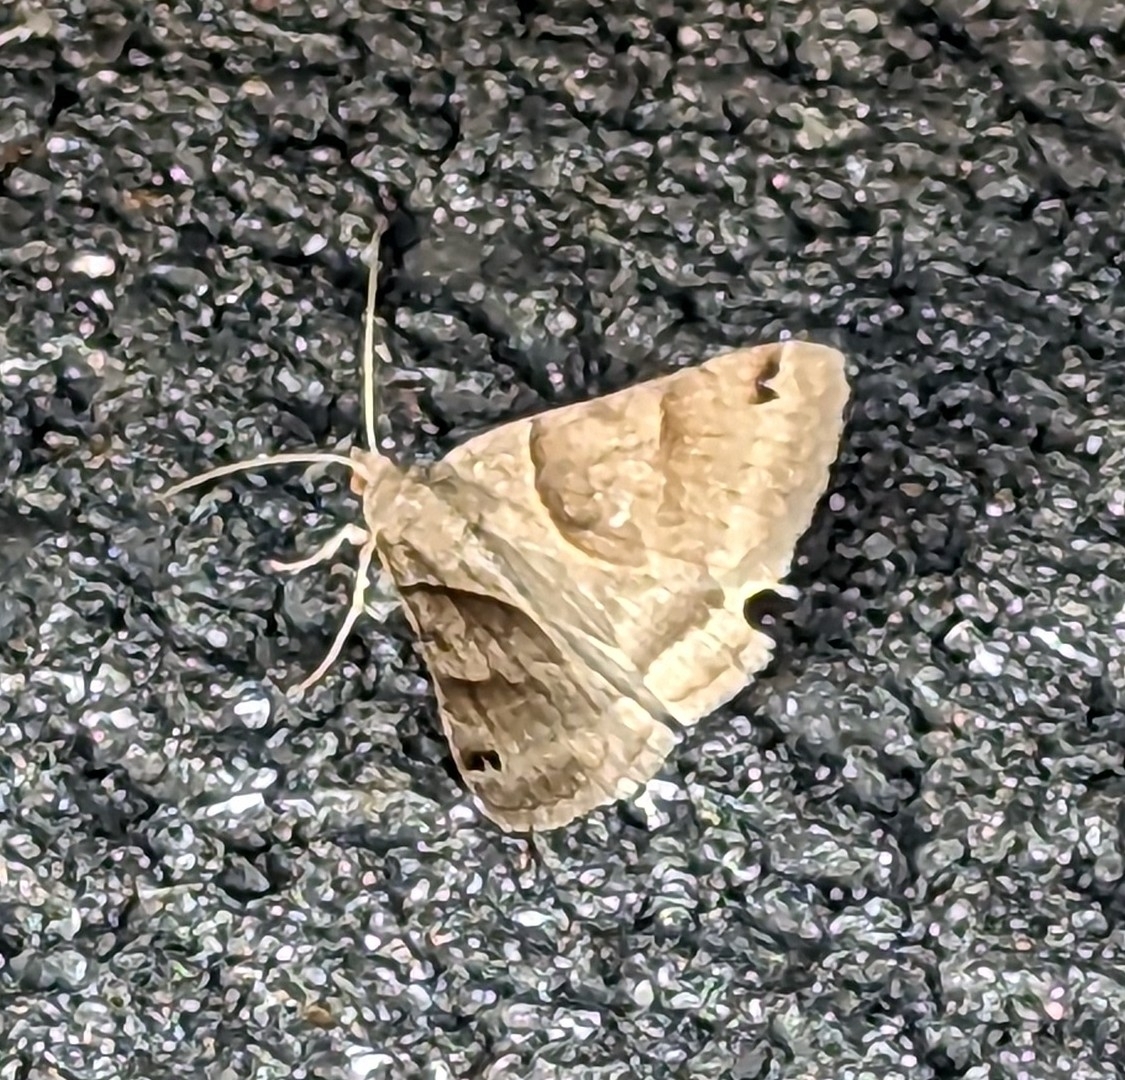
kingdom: Animalia
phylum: Arthropoda
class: Insecta
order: Lepidoptera
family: Erebidae
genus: Caenurgina
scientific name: Caenurgina crassiuscula
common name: Double-barred
